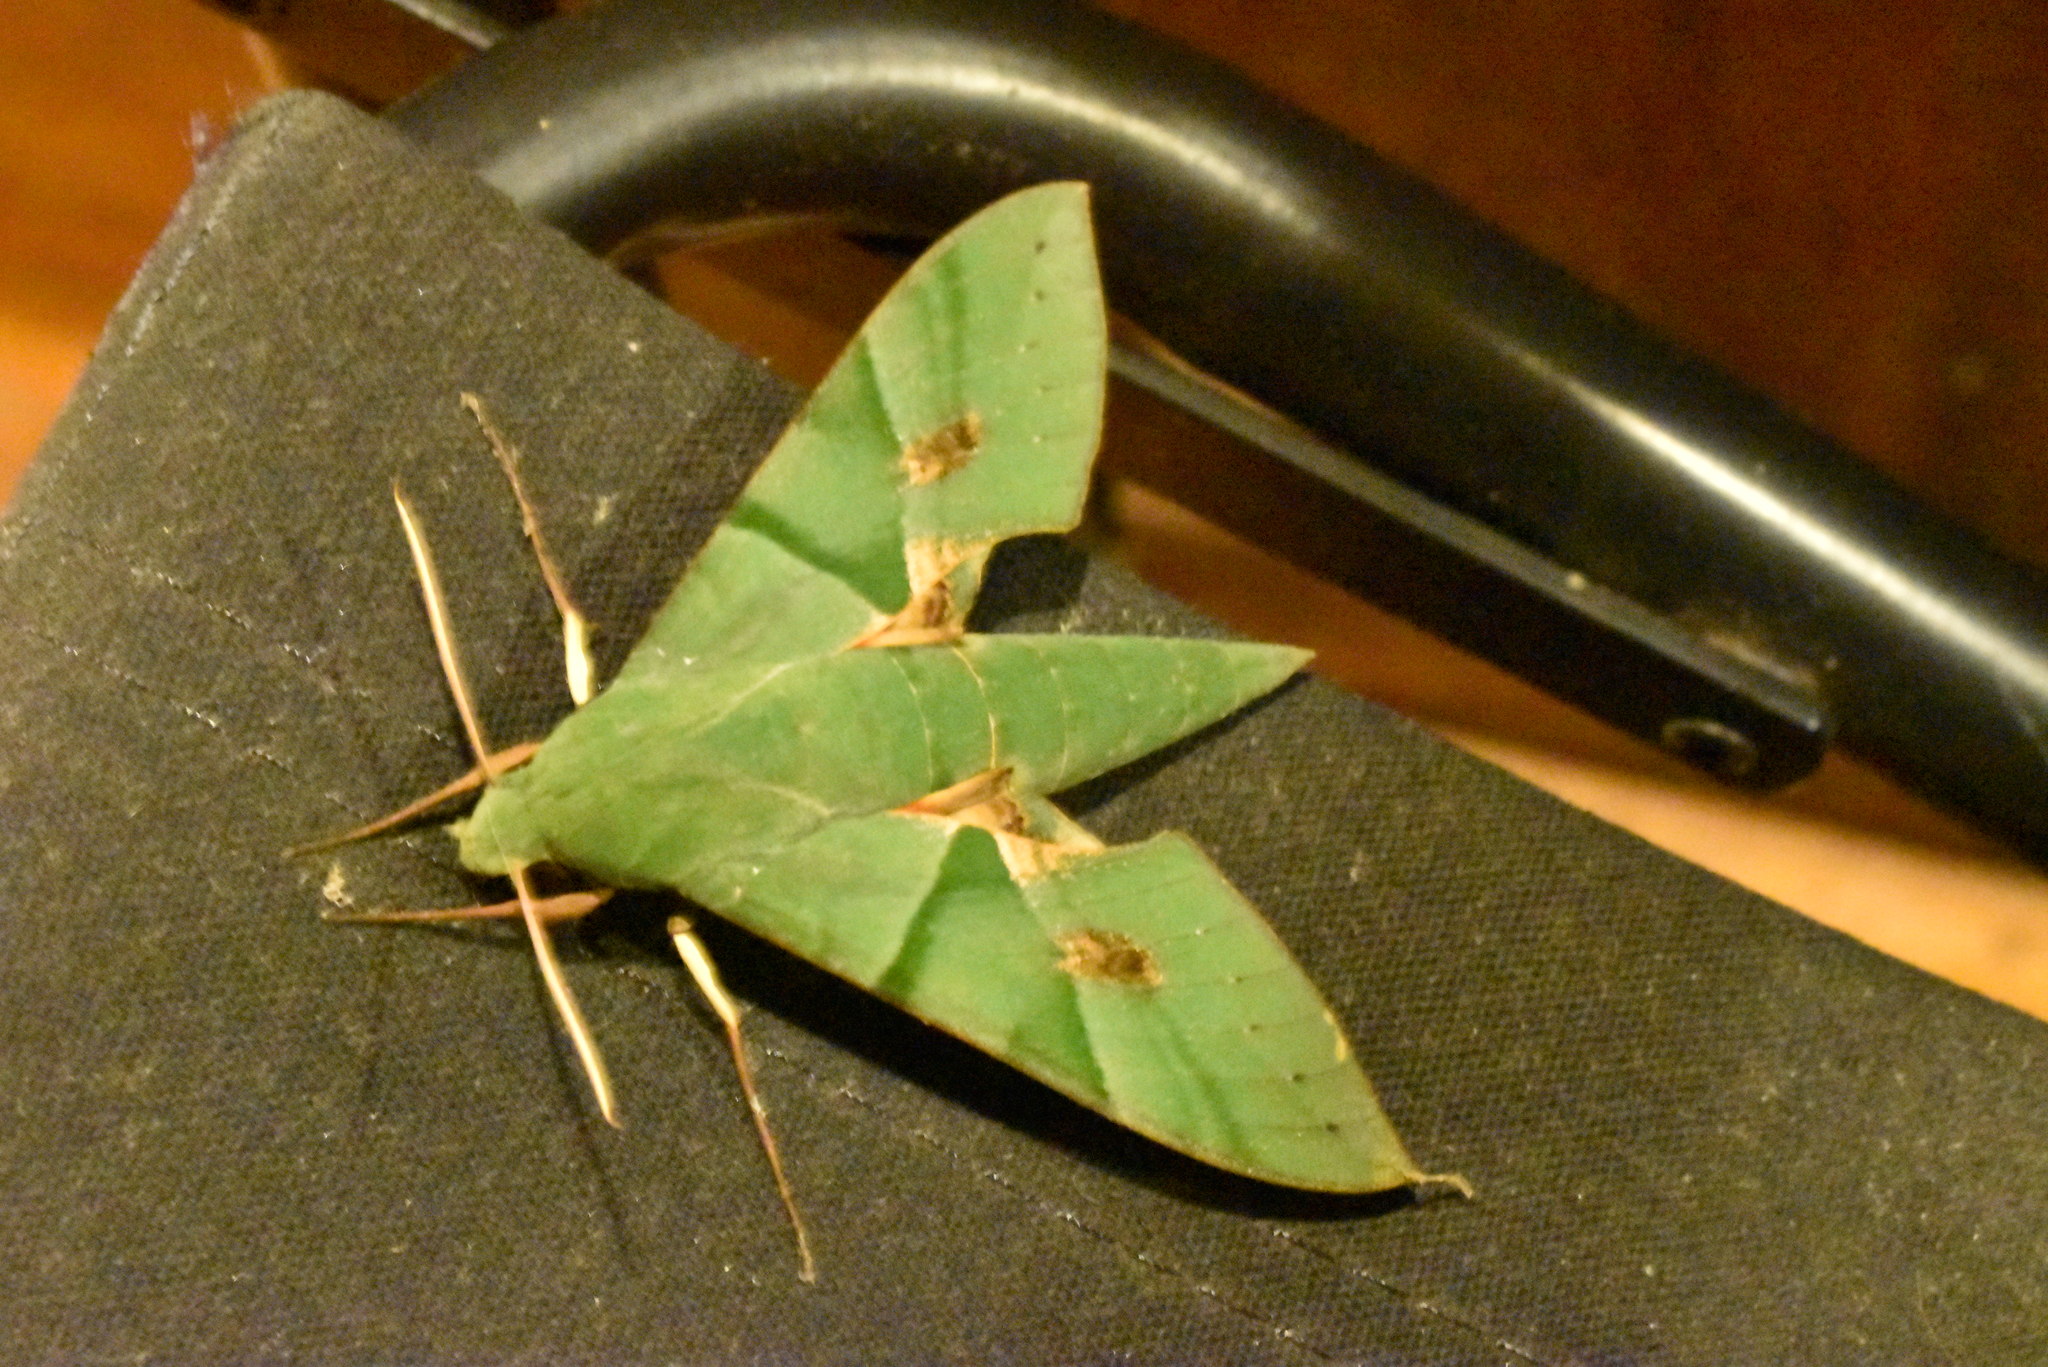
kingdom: Animalia
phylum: Arthropoda
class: Insecta
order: Lepidoptera
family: Sphingidae
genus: Eumorpha
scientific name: Eumorpha labruscae
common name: Gaudy sphinx
